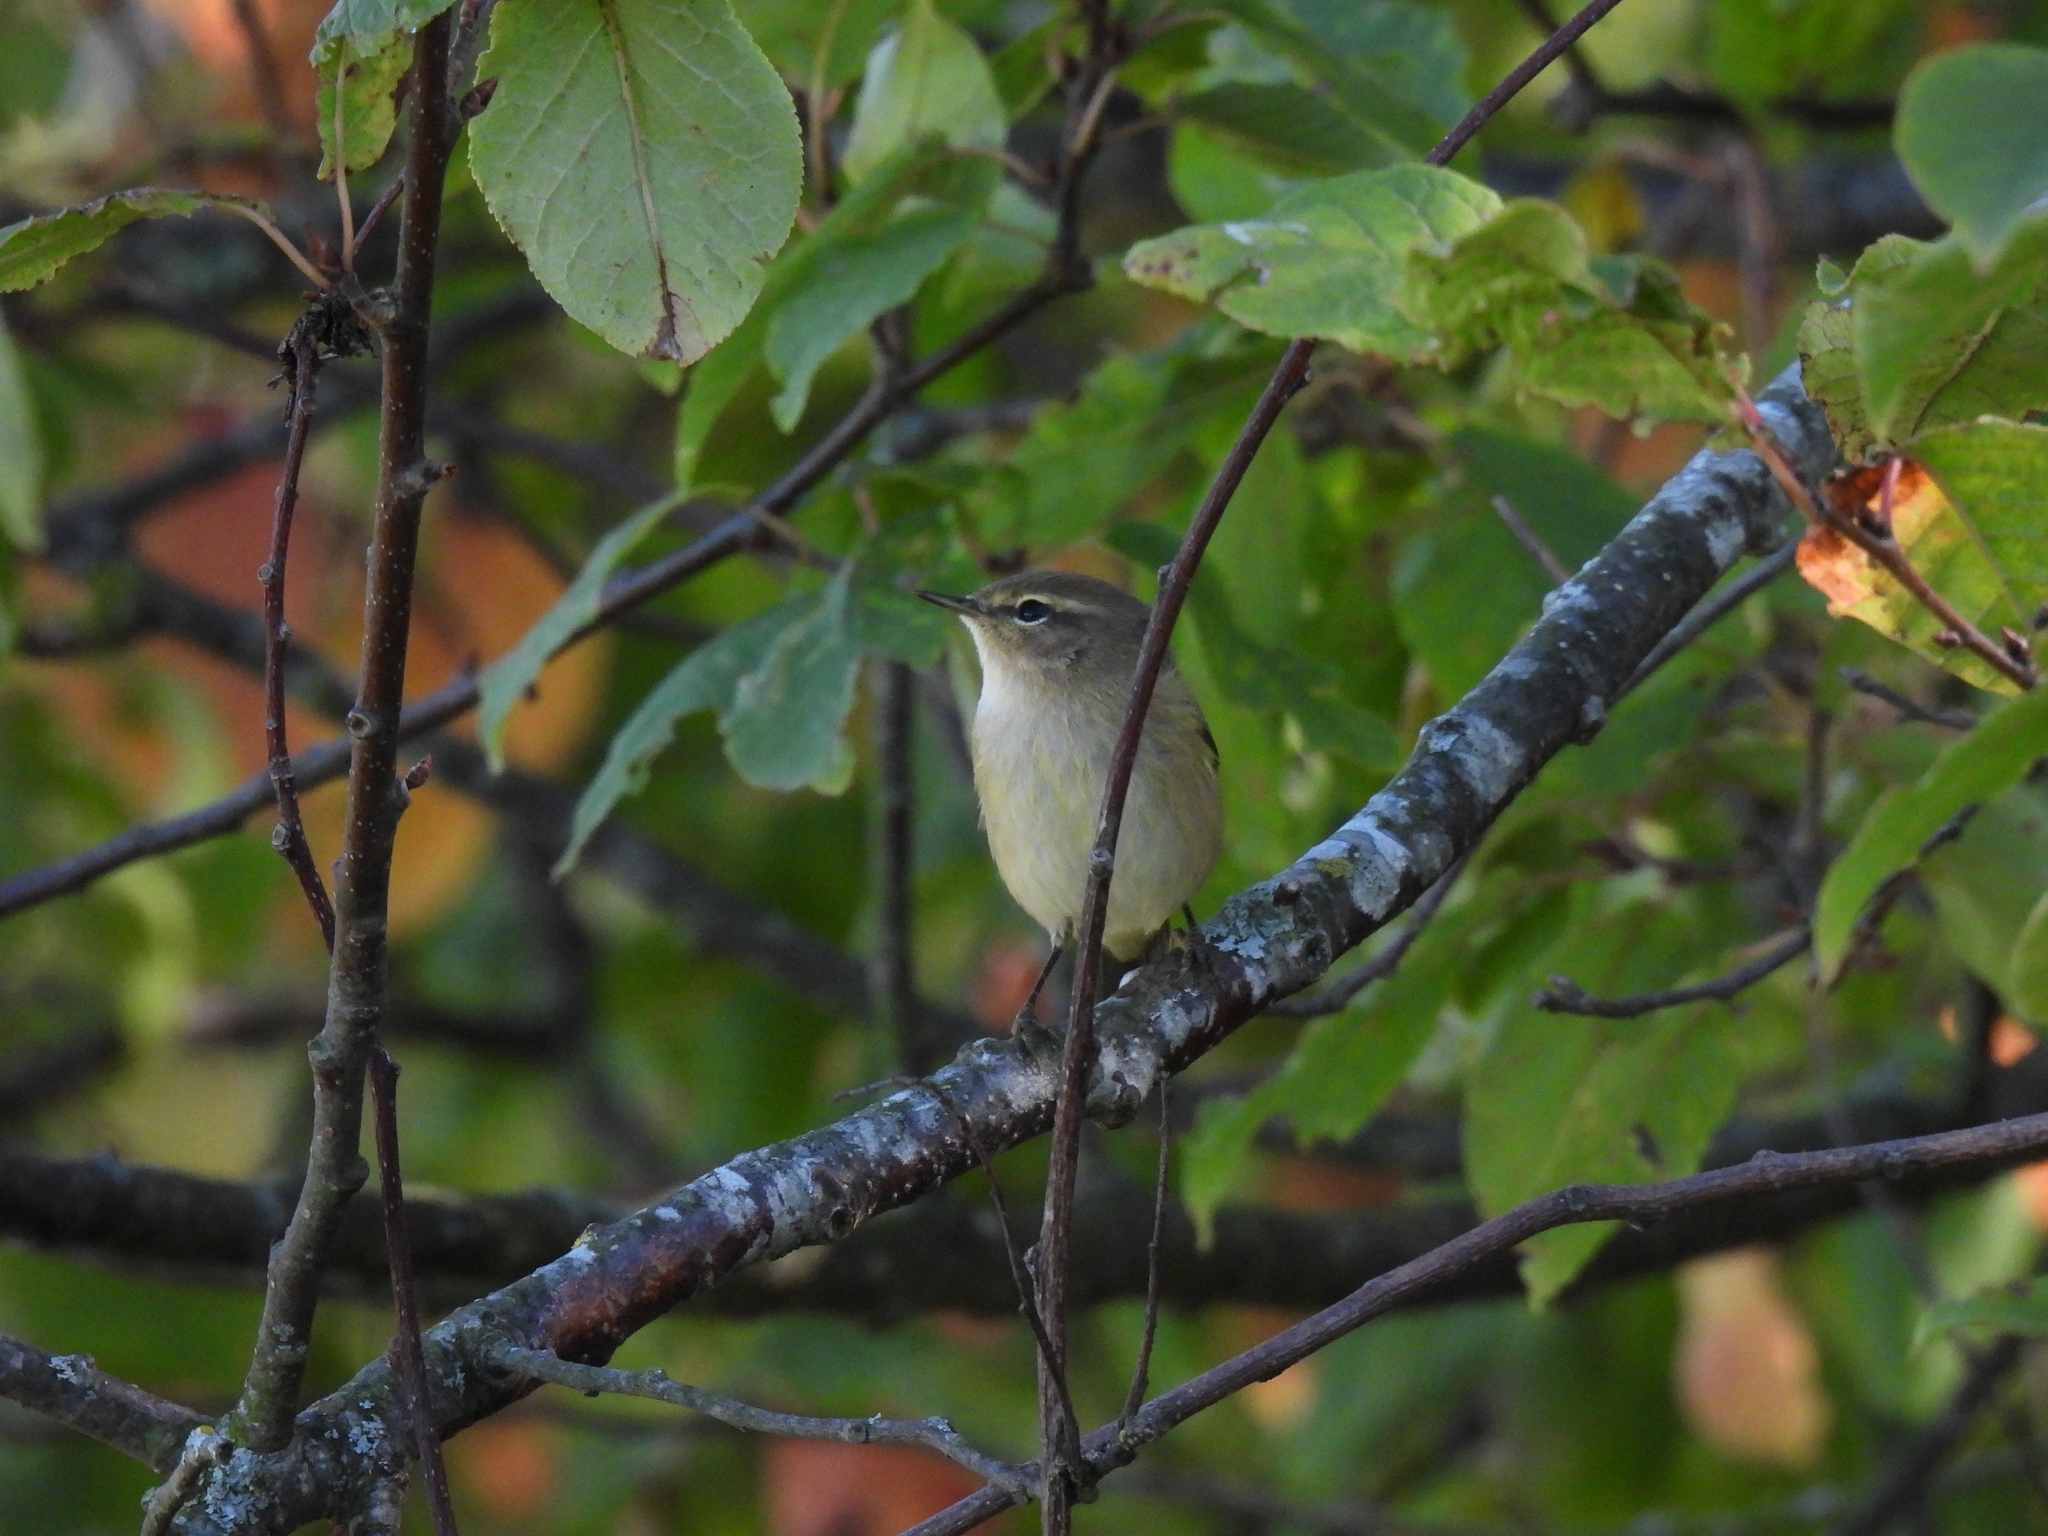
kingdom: Animalia
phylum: Chordata
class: Aves
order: Passeriformes
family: Phylloscopidae
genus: Phylloscopus
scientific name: Phylloscopus collybita
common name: Common chiffchaff
